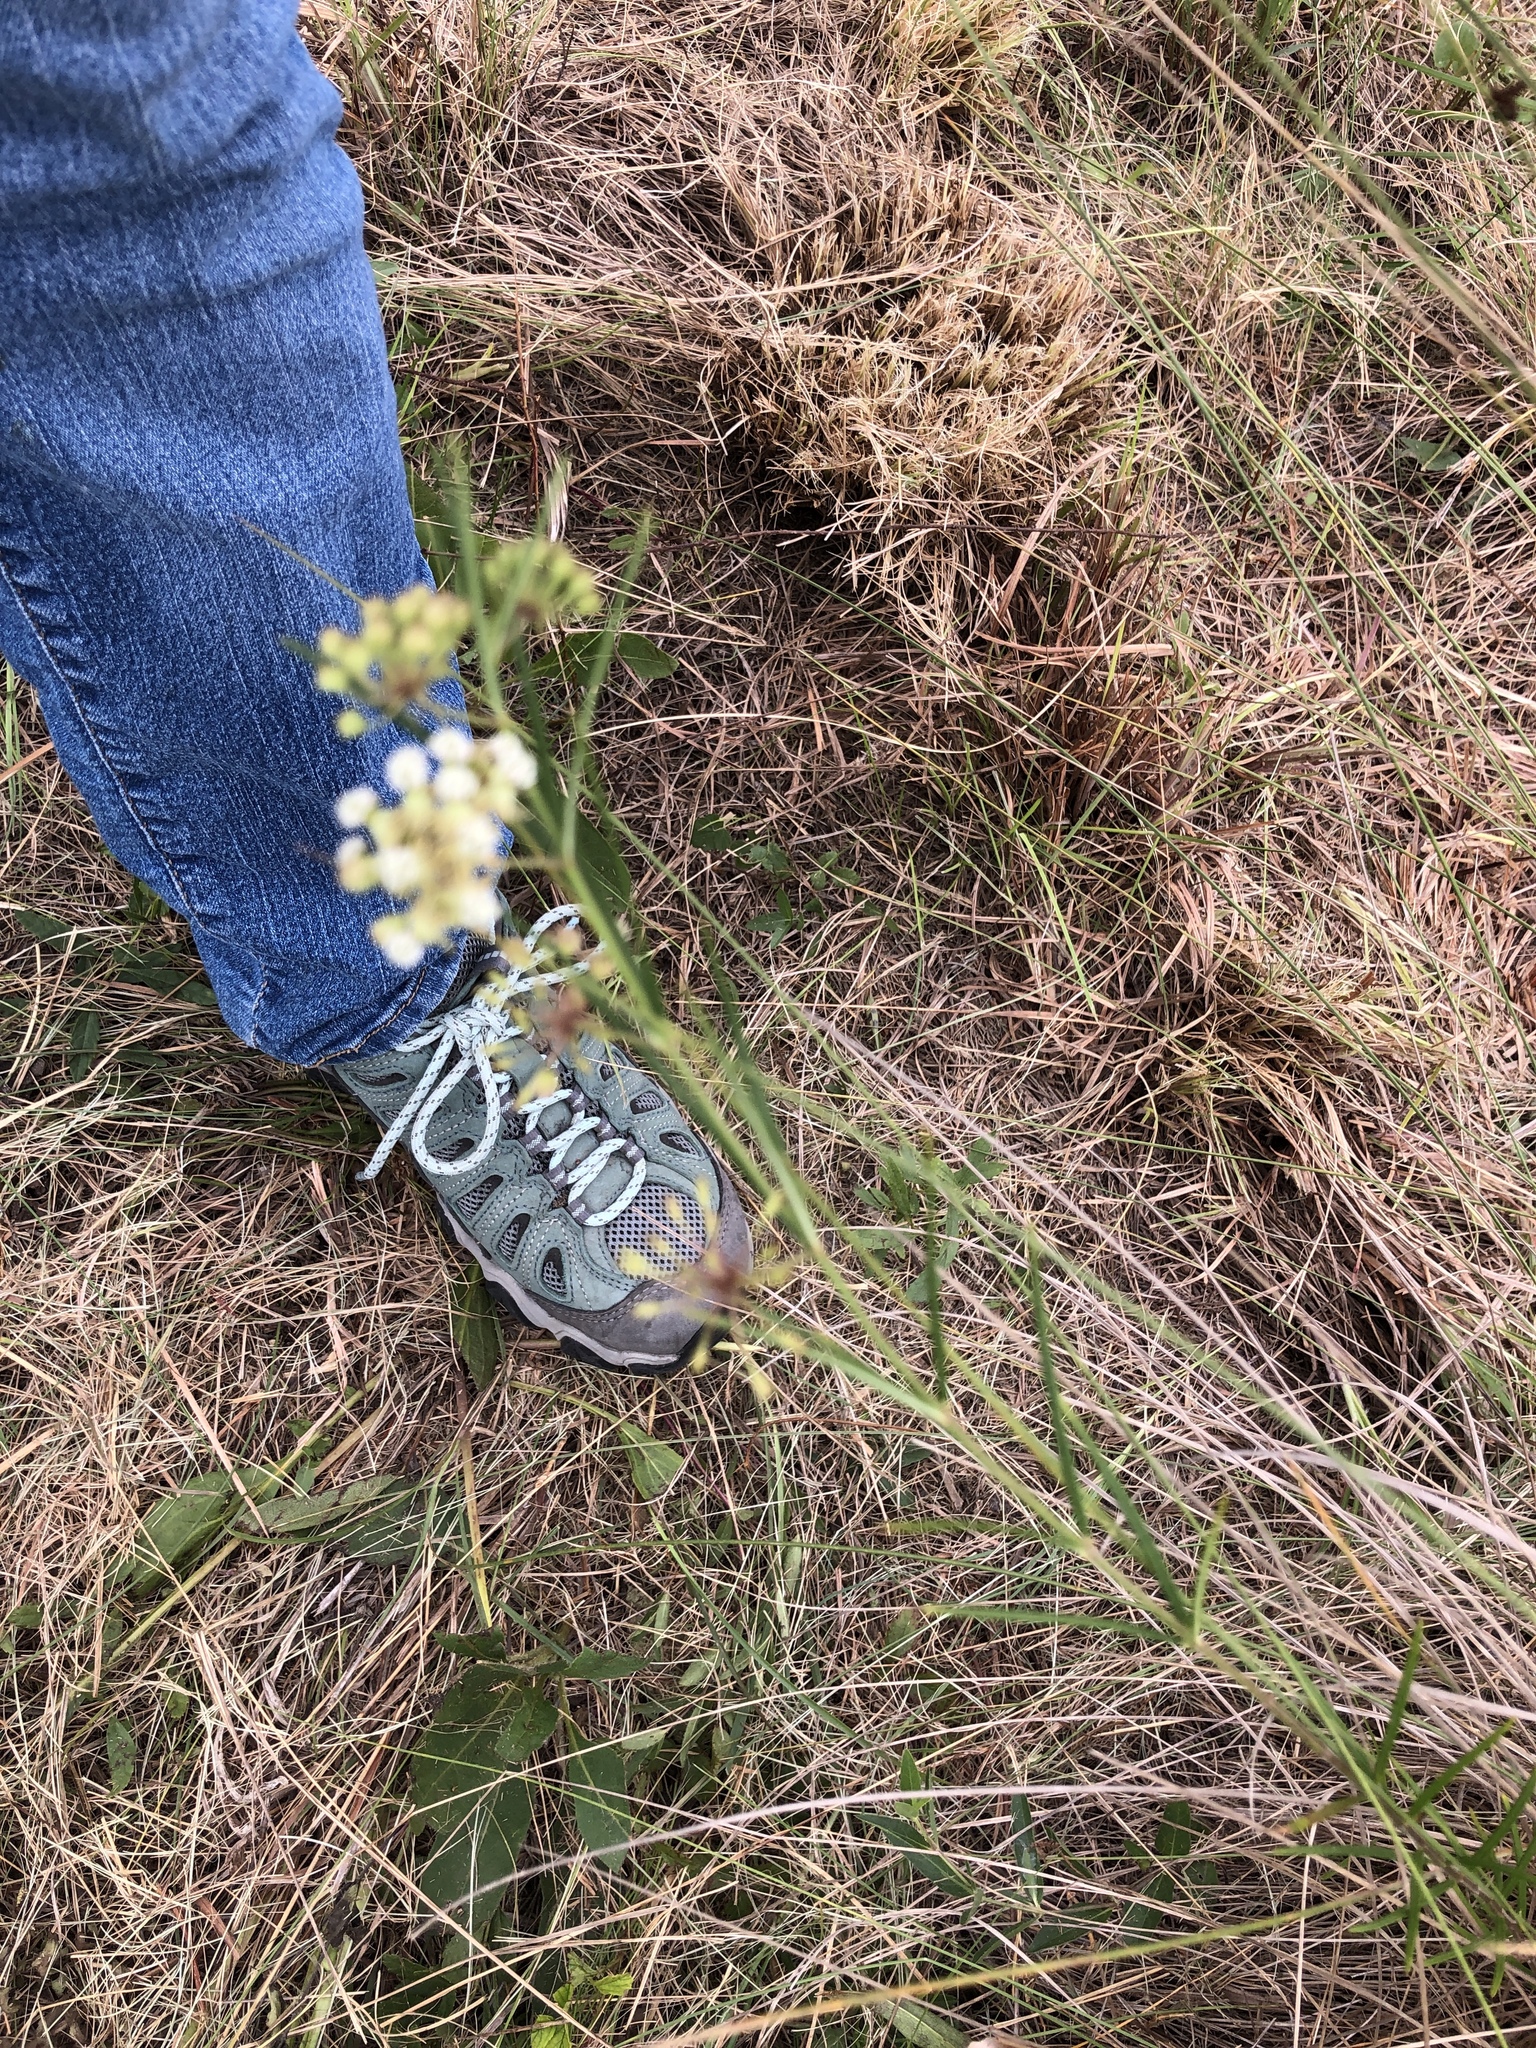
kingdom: Plantae
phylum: Tracheophyta
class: Magnoliopsida
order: Gentianales
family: Apocynaceae
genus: Asclepias
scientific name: Asclepias verticillata
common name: Eastern whorled milkweed
